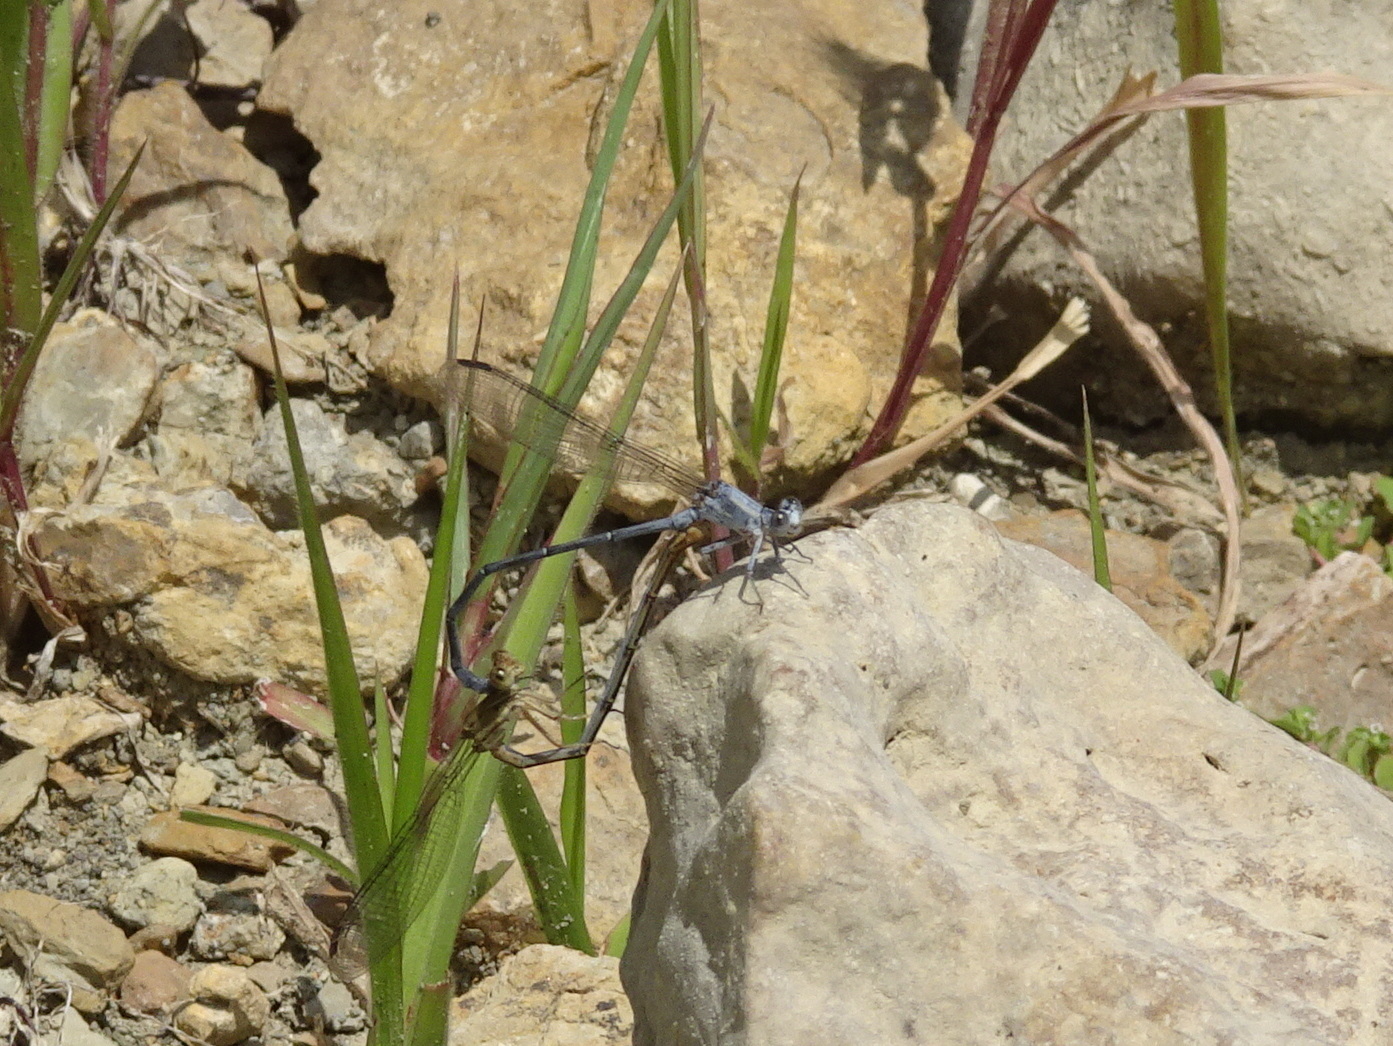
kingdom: Animalia
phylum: Arthropoda
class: Insecta
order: Odonata
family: Coenagrionidae
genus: Argia
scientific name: Argia moesta
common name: Powdered dancer
